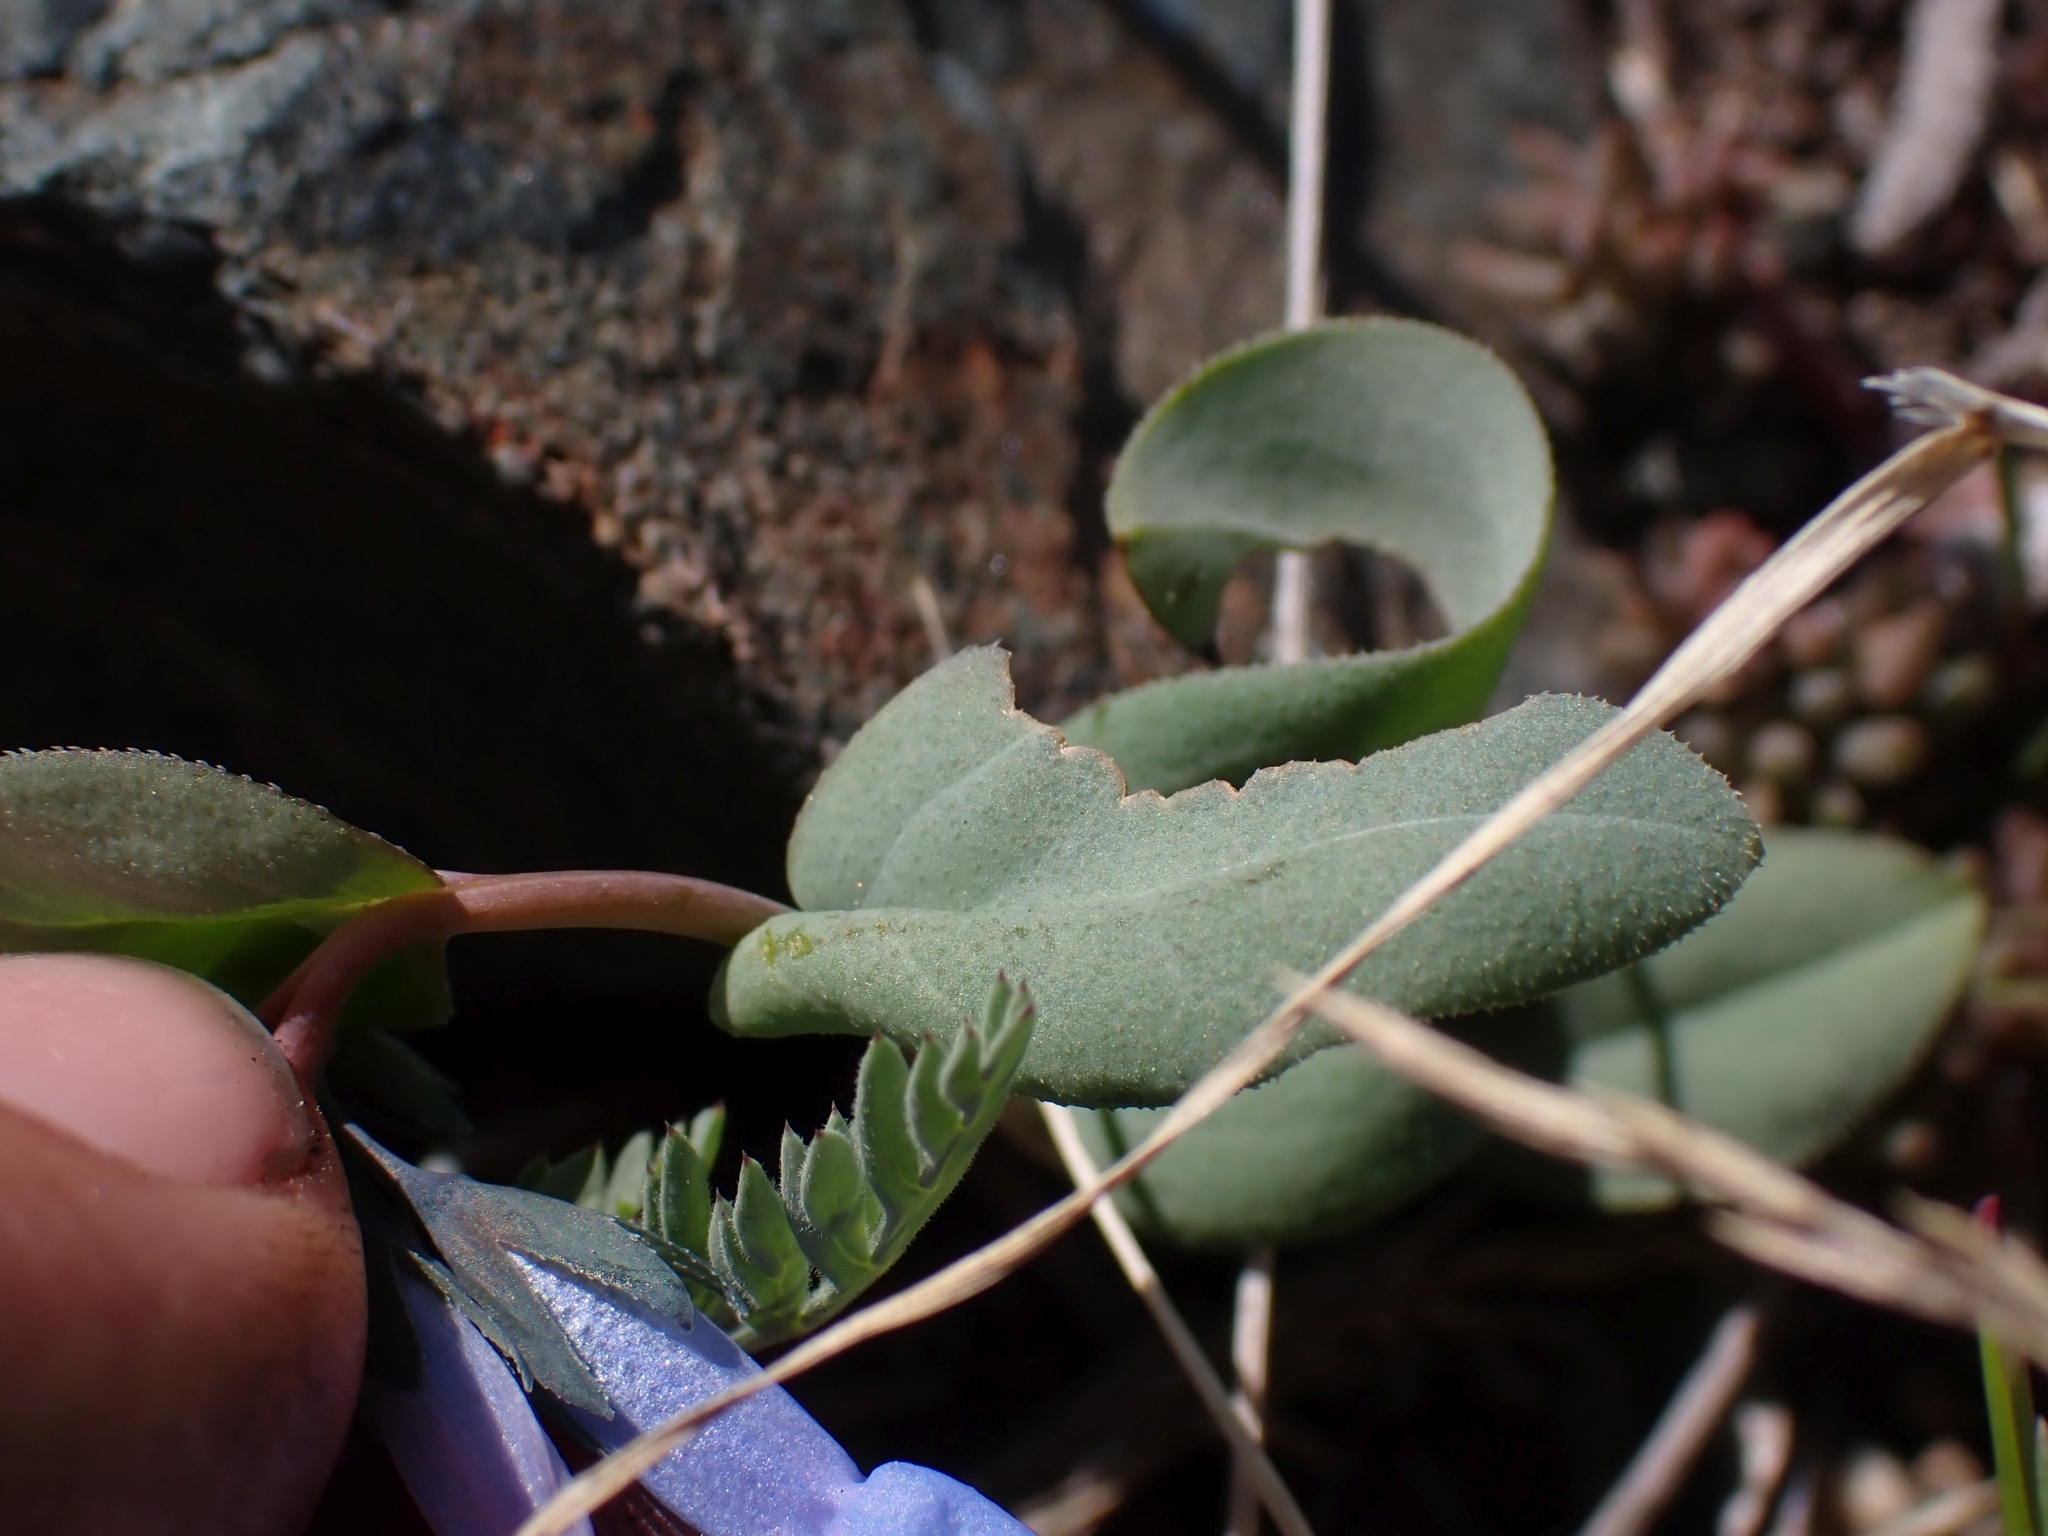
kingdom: Plantae
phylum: Tracheophyta
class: Magnoliopsida
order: Boraginales
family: Boraginaceae
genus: Mertensia
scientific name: Mertensia longiflora
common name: Large-flowered bluebells
